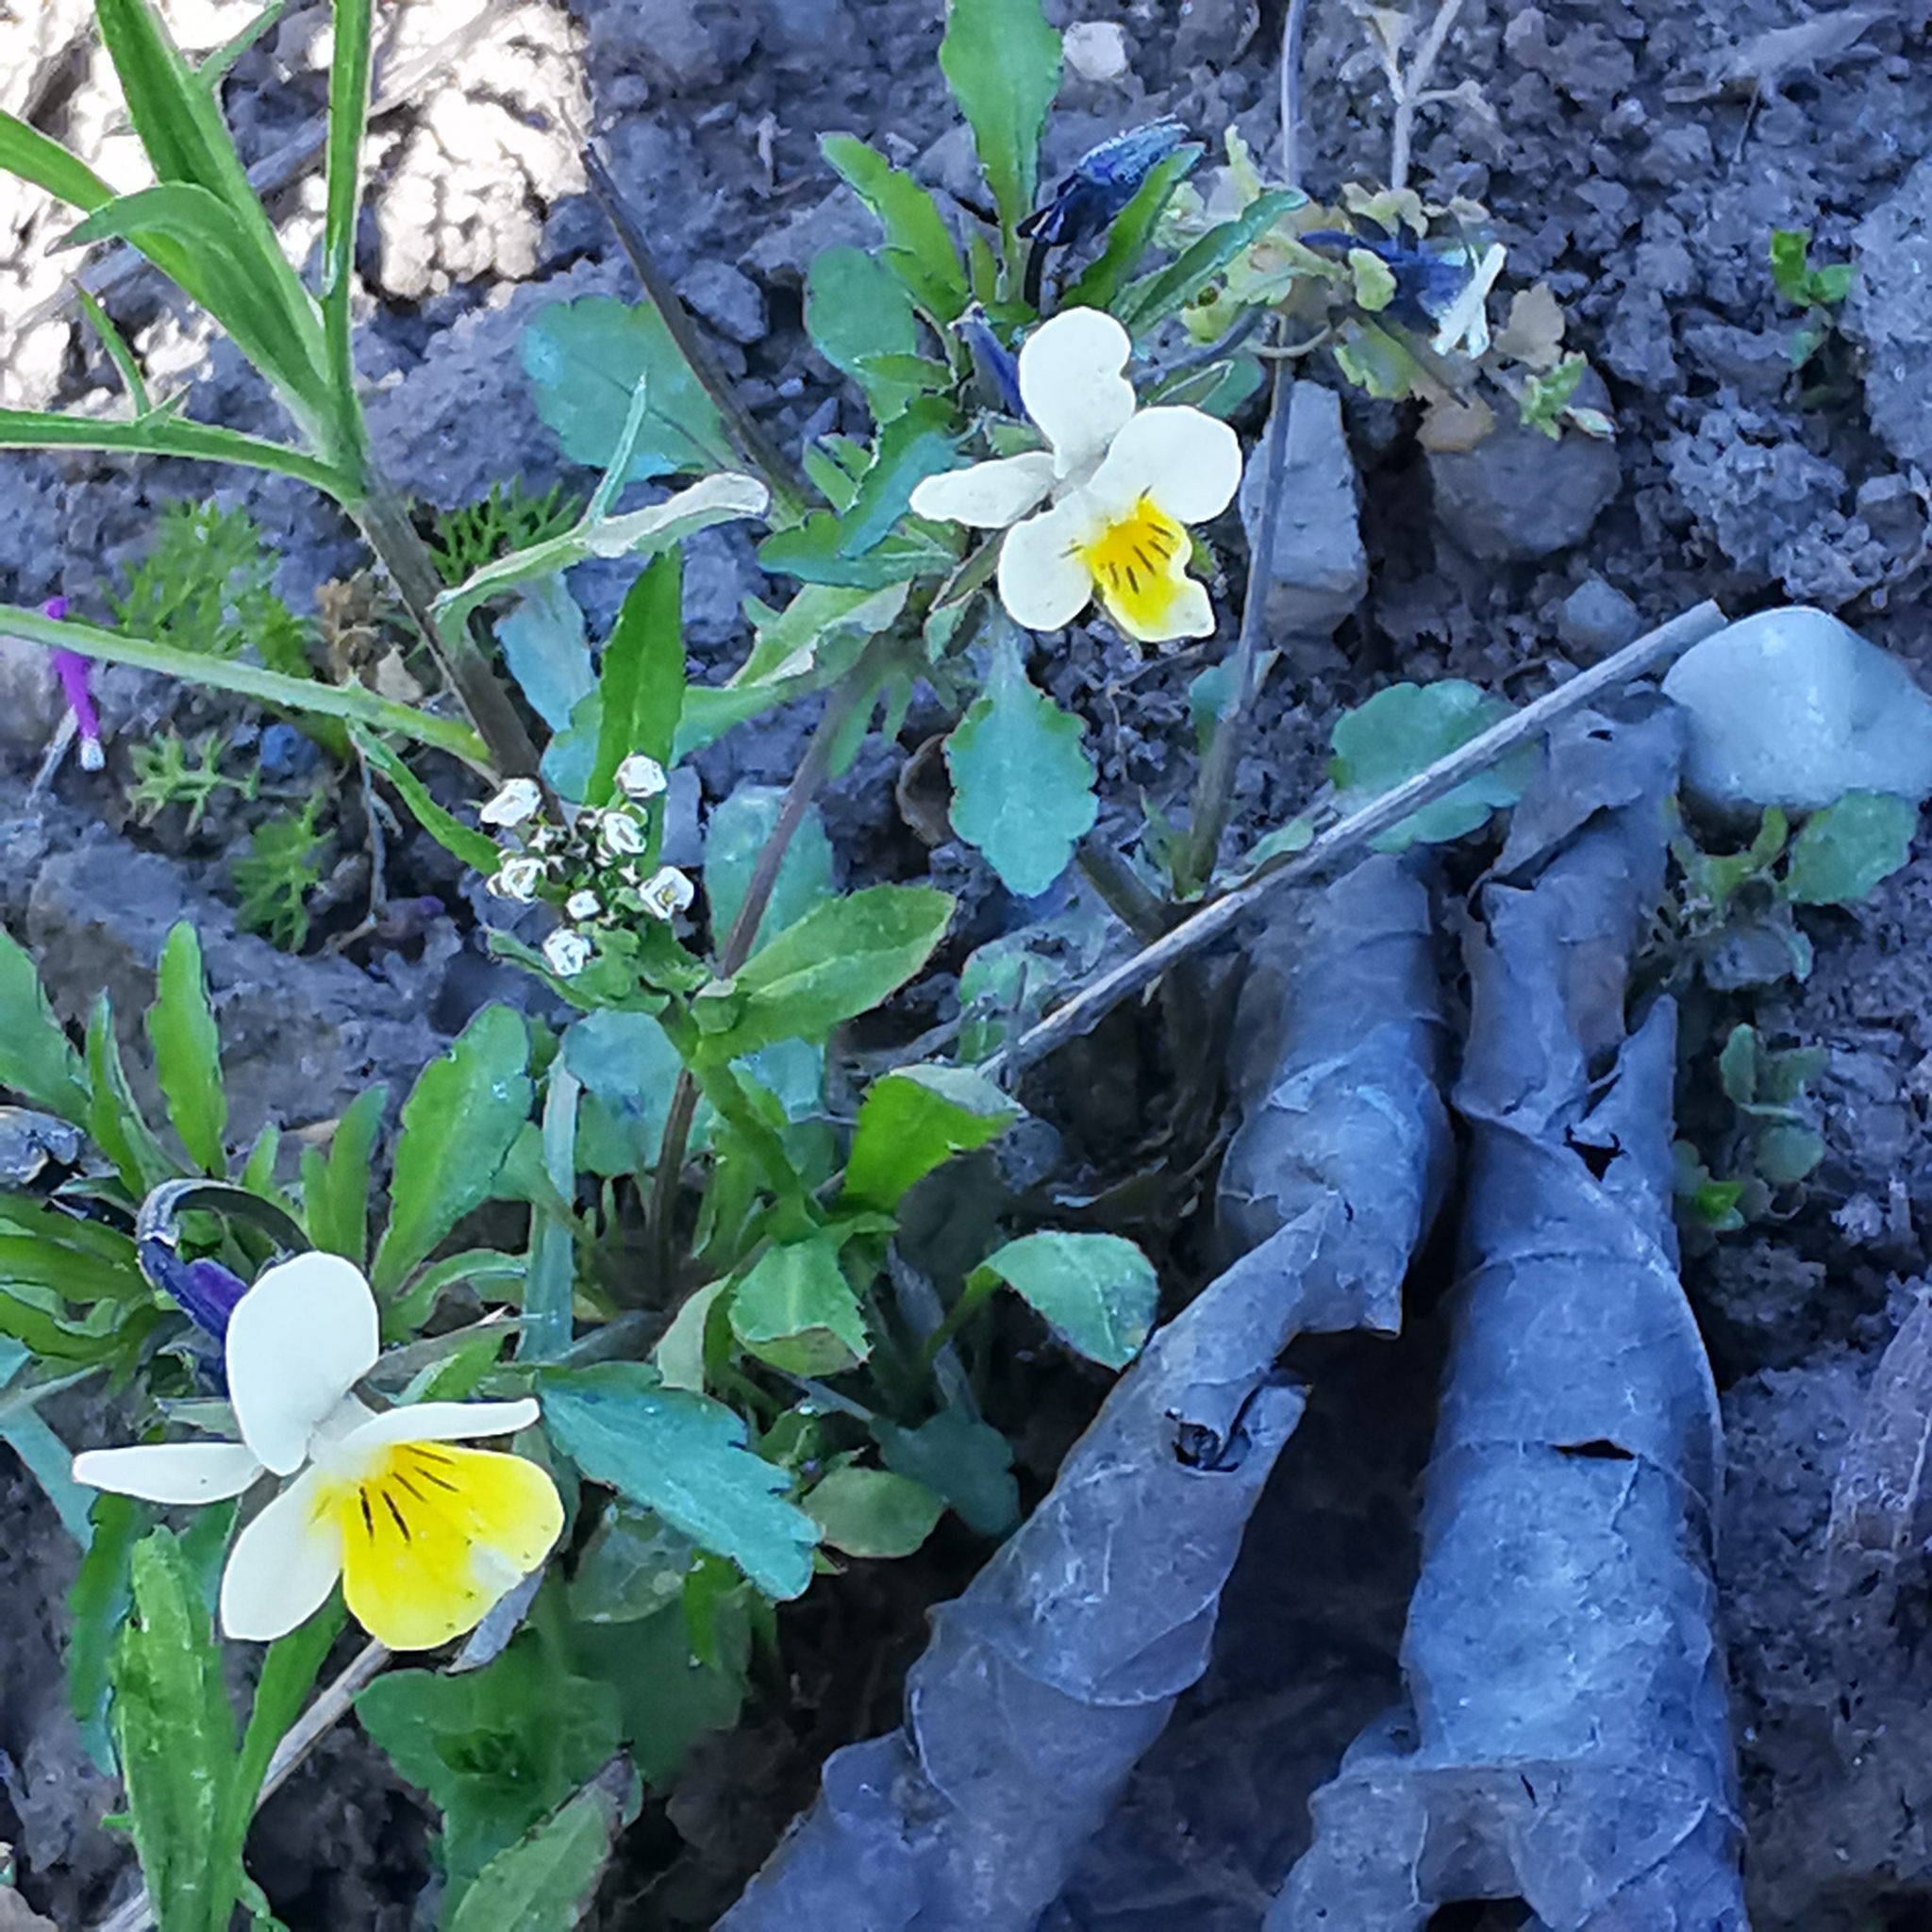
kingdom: Plantae
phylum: Tracheophyta
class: Magnoliopsida
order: Malpighiales
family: Violaceae
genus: Viola
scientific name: Viola arvensis
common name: Field pansy
